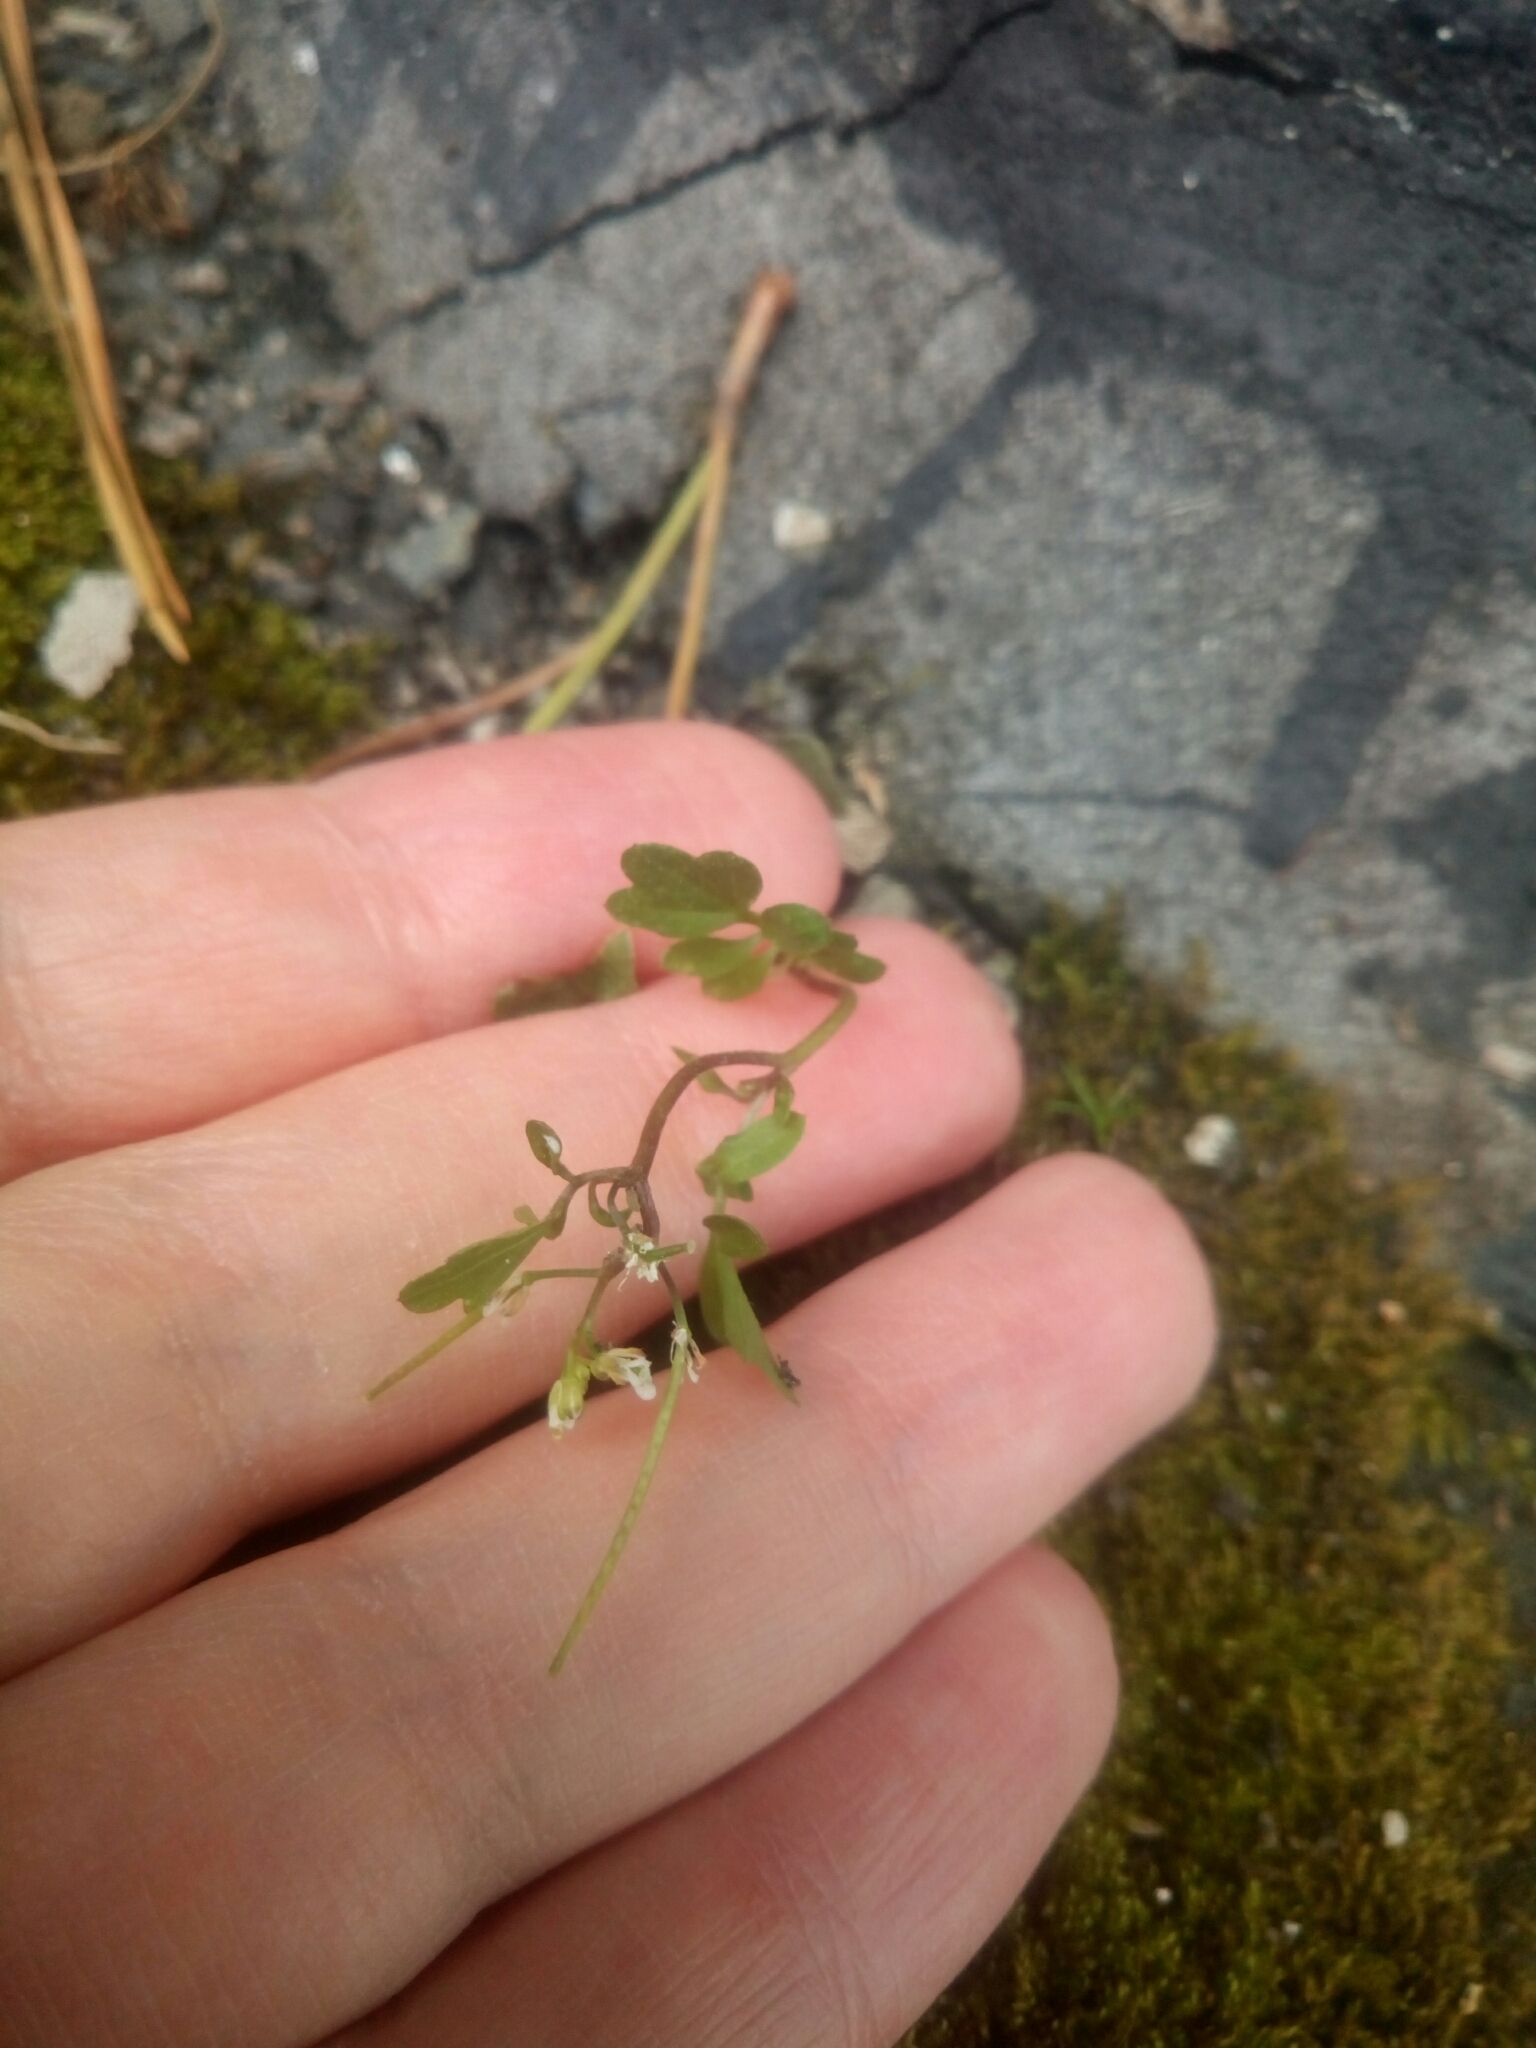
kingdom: Plantae
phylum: Tracheophyta
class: Magnoliopsida
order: Brassicales
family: Brassicaceae
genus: Cardamine
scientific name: Cardamine occulta
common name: Asian wavy bittercress
